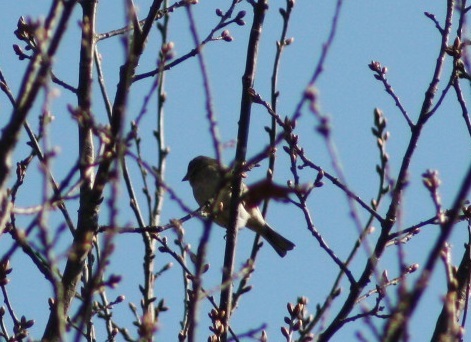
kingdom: Animalia
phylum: Chordata
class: Aves
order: Passeriformes
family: Fringillidae
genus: Fringilla
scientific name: Fringilla montifringilla
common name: Brambling
